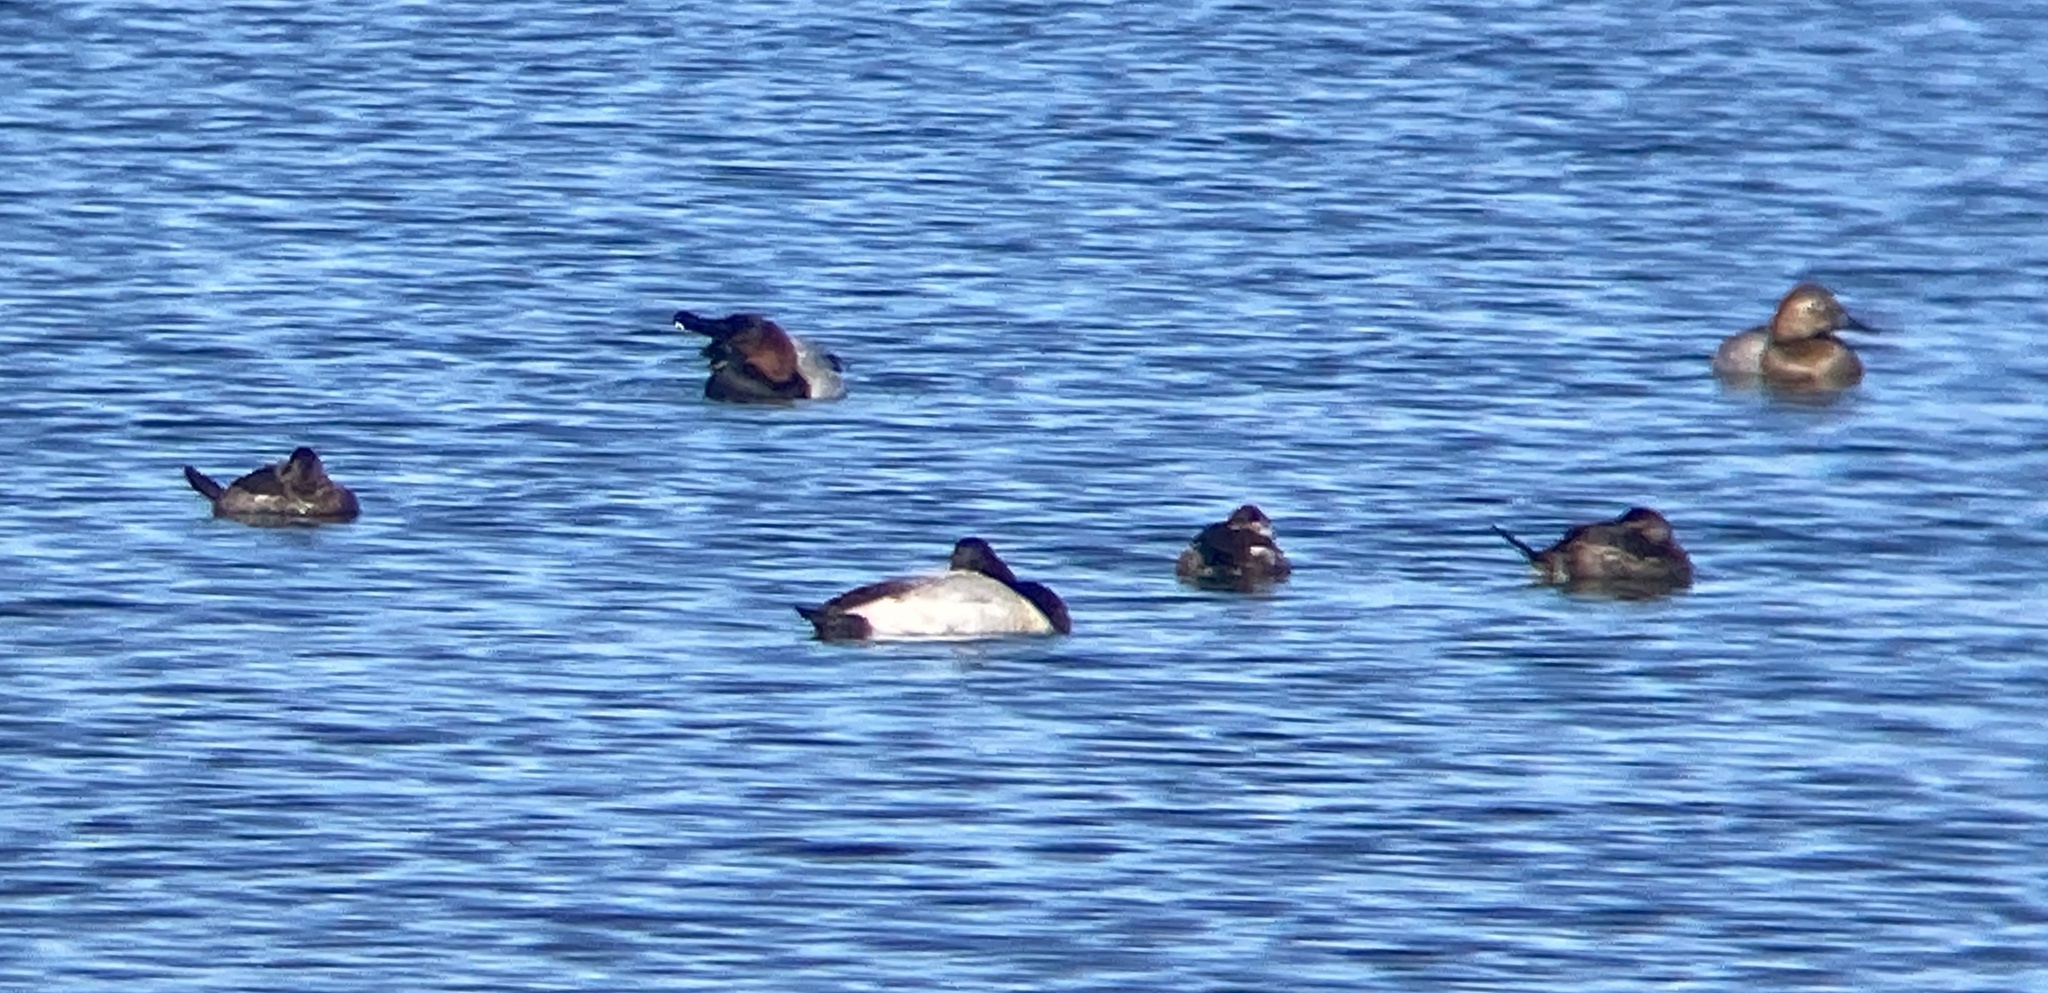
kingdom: Animalia
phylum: Chordata
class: Aves
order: Anseriformes
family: Anatidae
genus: Oxyura
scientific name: Oxyura jamaicensis
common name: Ruddy duck
